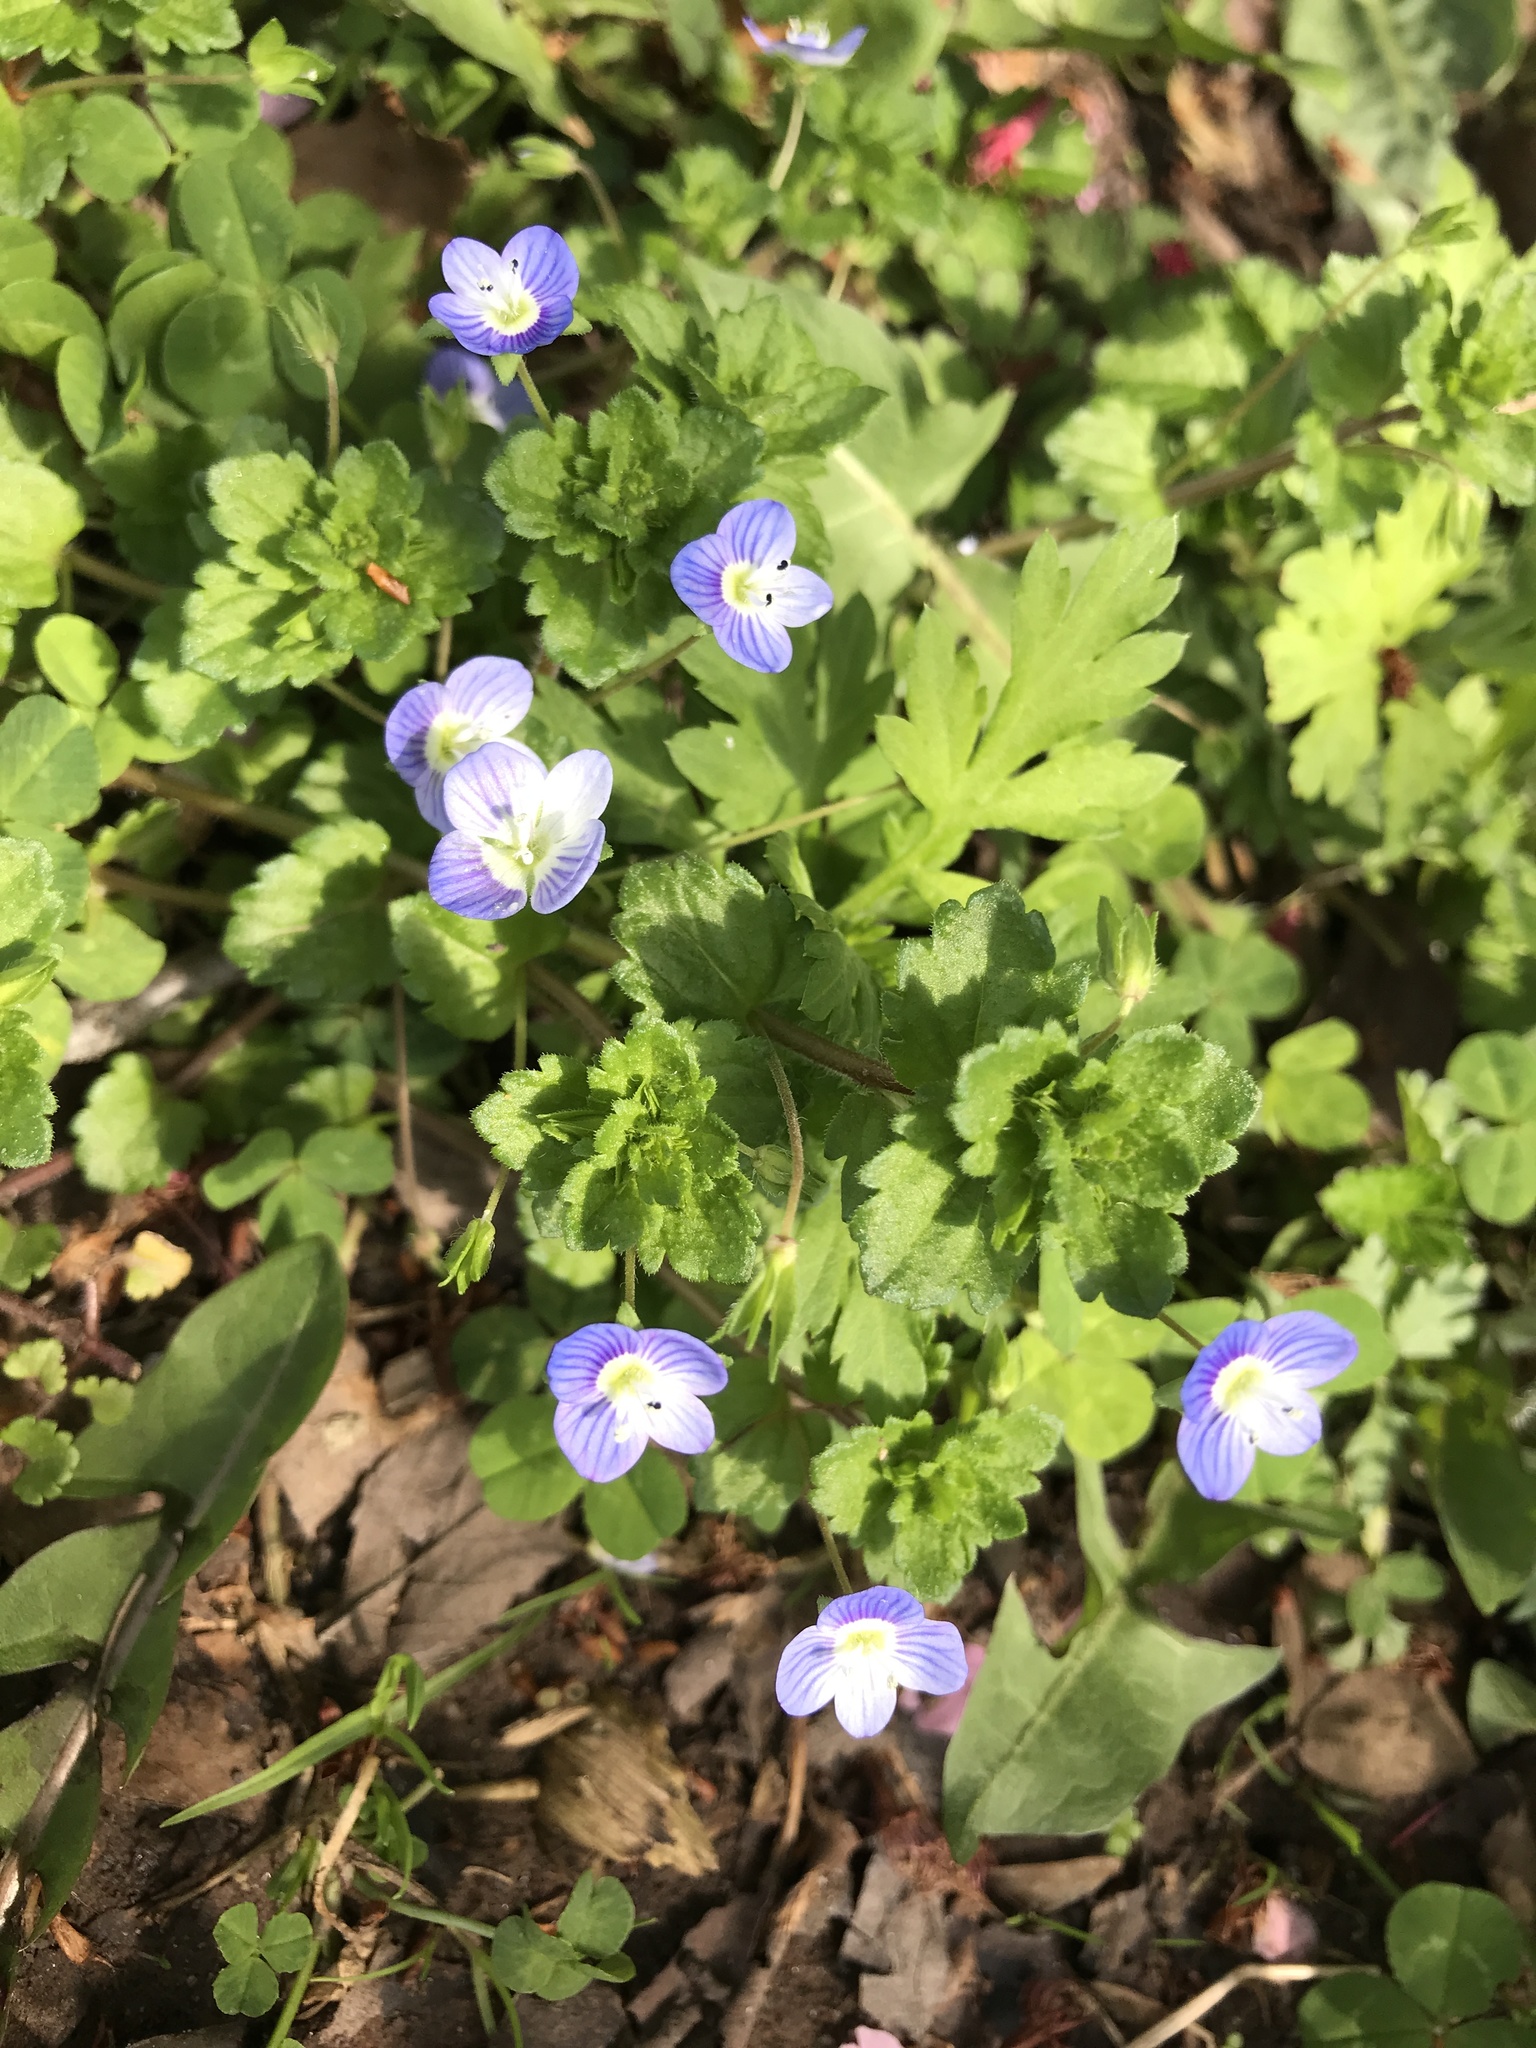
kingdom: Plantae
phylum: Tracheophyta
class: Magnoliopsida
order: Lamiales
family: Plantaginaceae
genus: Veronica
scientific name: Veronica persica
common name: Common field-speedwell
